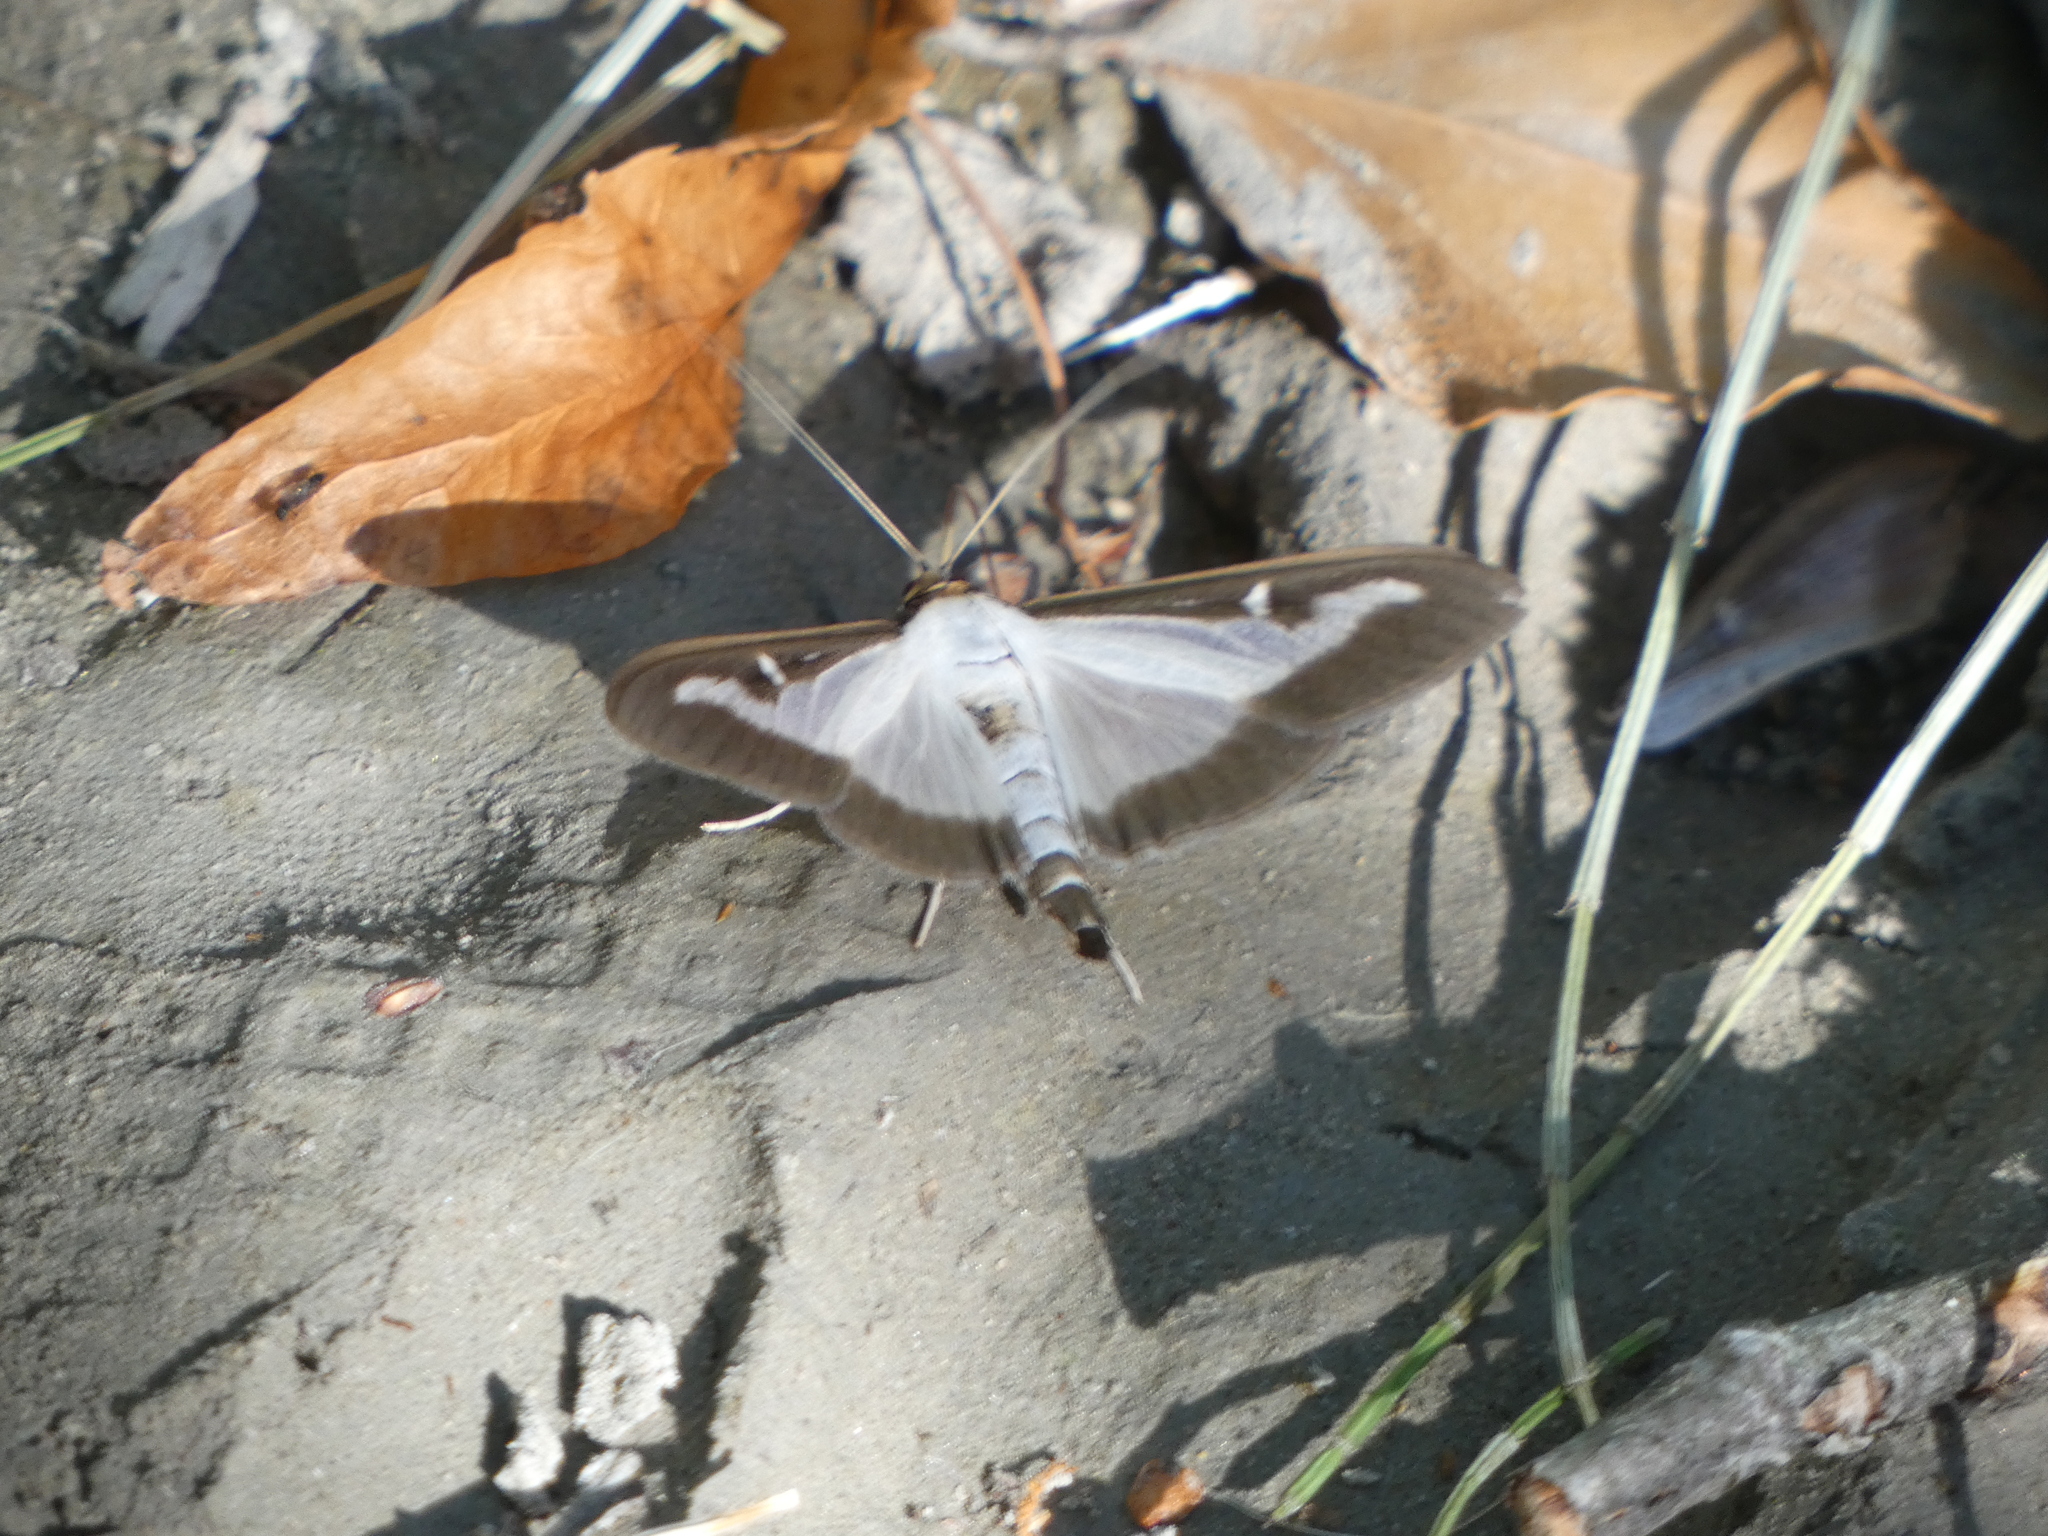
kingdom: Animalia
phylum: Arthropoda
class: Insecta
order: Lepidoptera
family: Crambidae
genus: Cydalima
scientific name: Cydalima perspectalis
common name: Box tree moth
